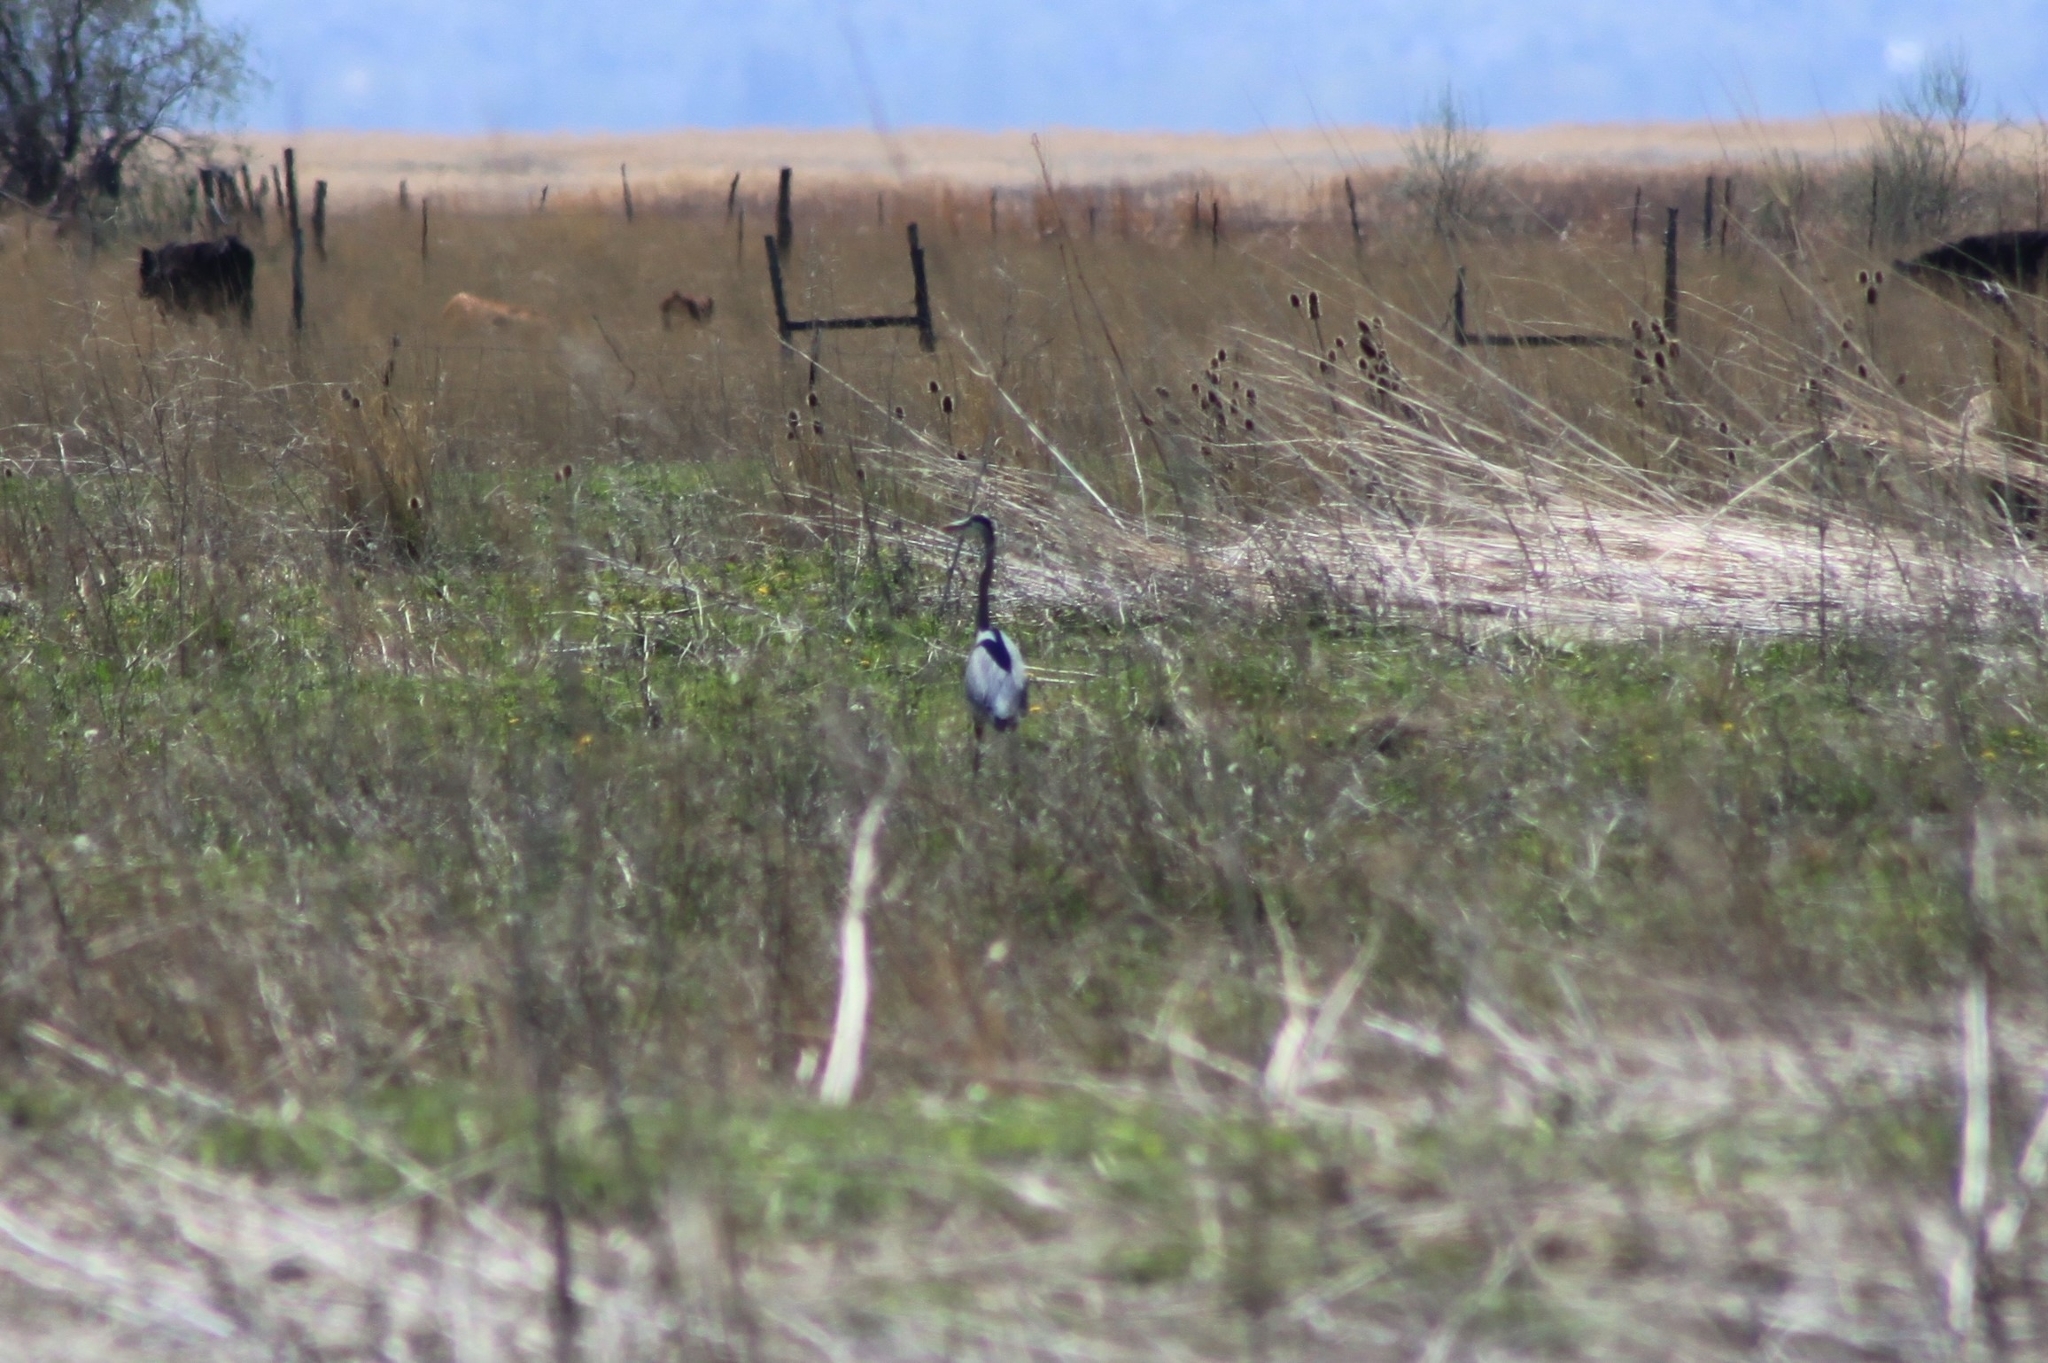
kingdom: Animalia
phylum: Chordata
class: Aves
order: Pelecaniformes
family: Ardeidae
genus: Ardea
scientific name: Ardea herodias
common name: Great blue heron
